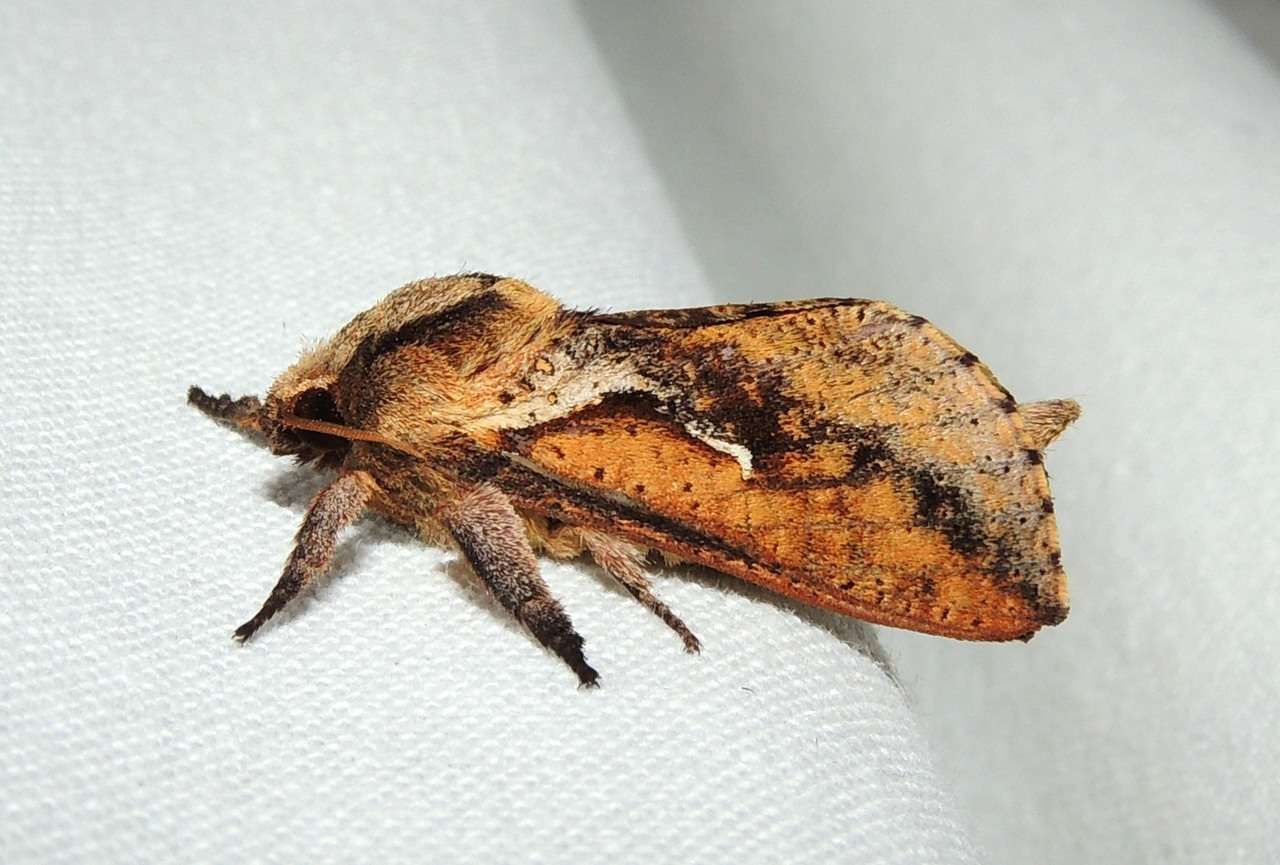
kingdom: Animalia
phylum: Arthropoda
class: Insecta
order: Lepidoptera
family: Hepialidae
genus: Elhamma
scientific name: Elhamma australasiae
